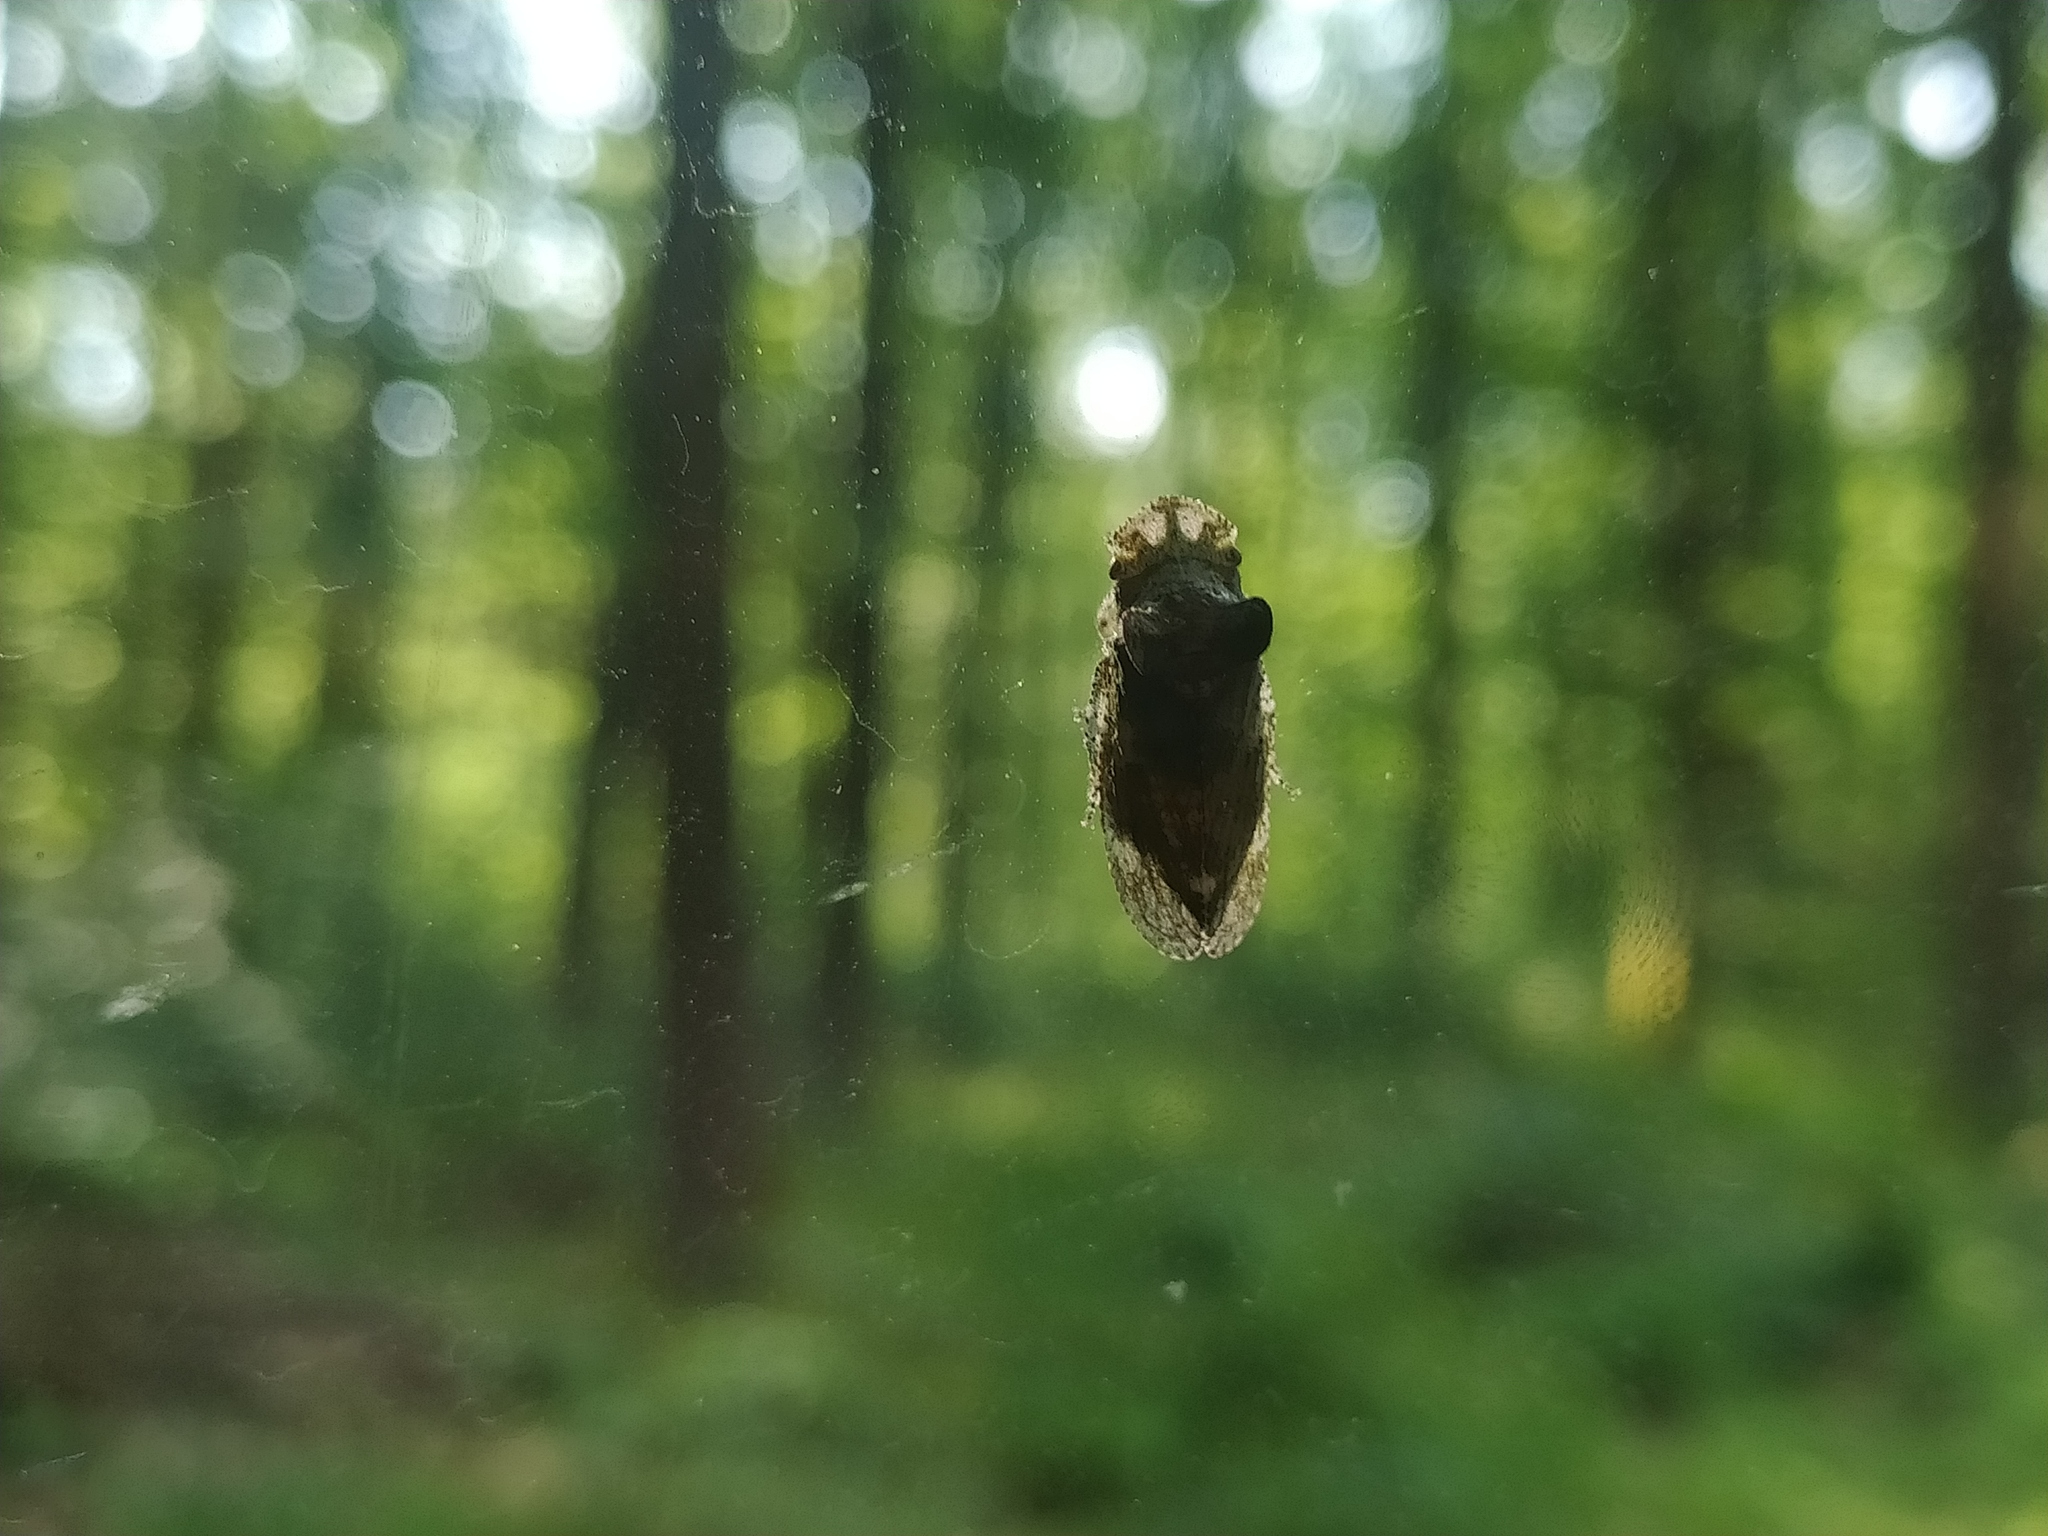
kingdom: Animalia
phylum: Arthropoda
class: Insecta
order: Hemiptera
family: Cicadellidae
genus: Ledra
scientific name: Ledra aurita
